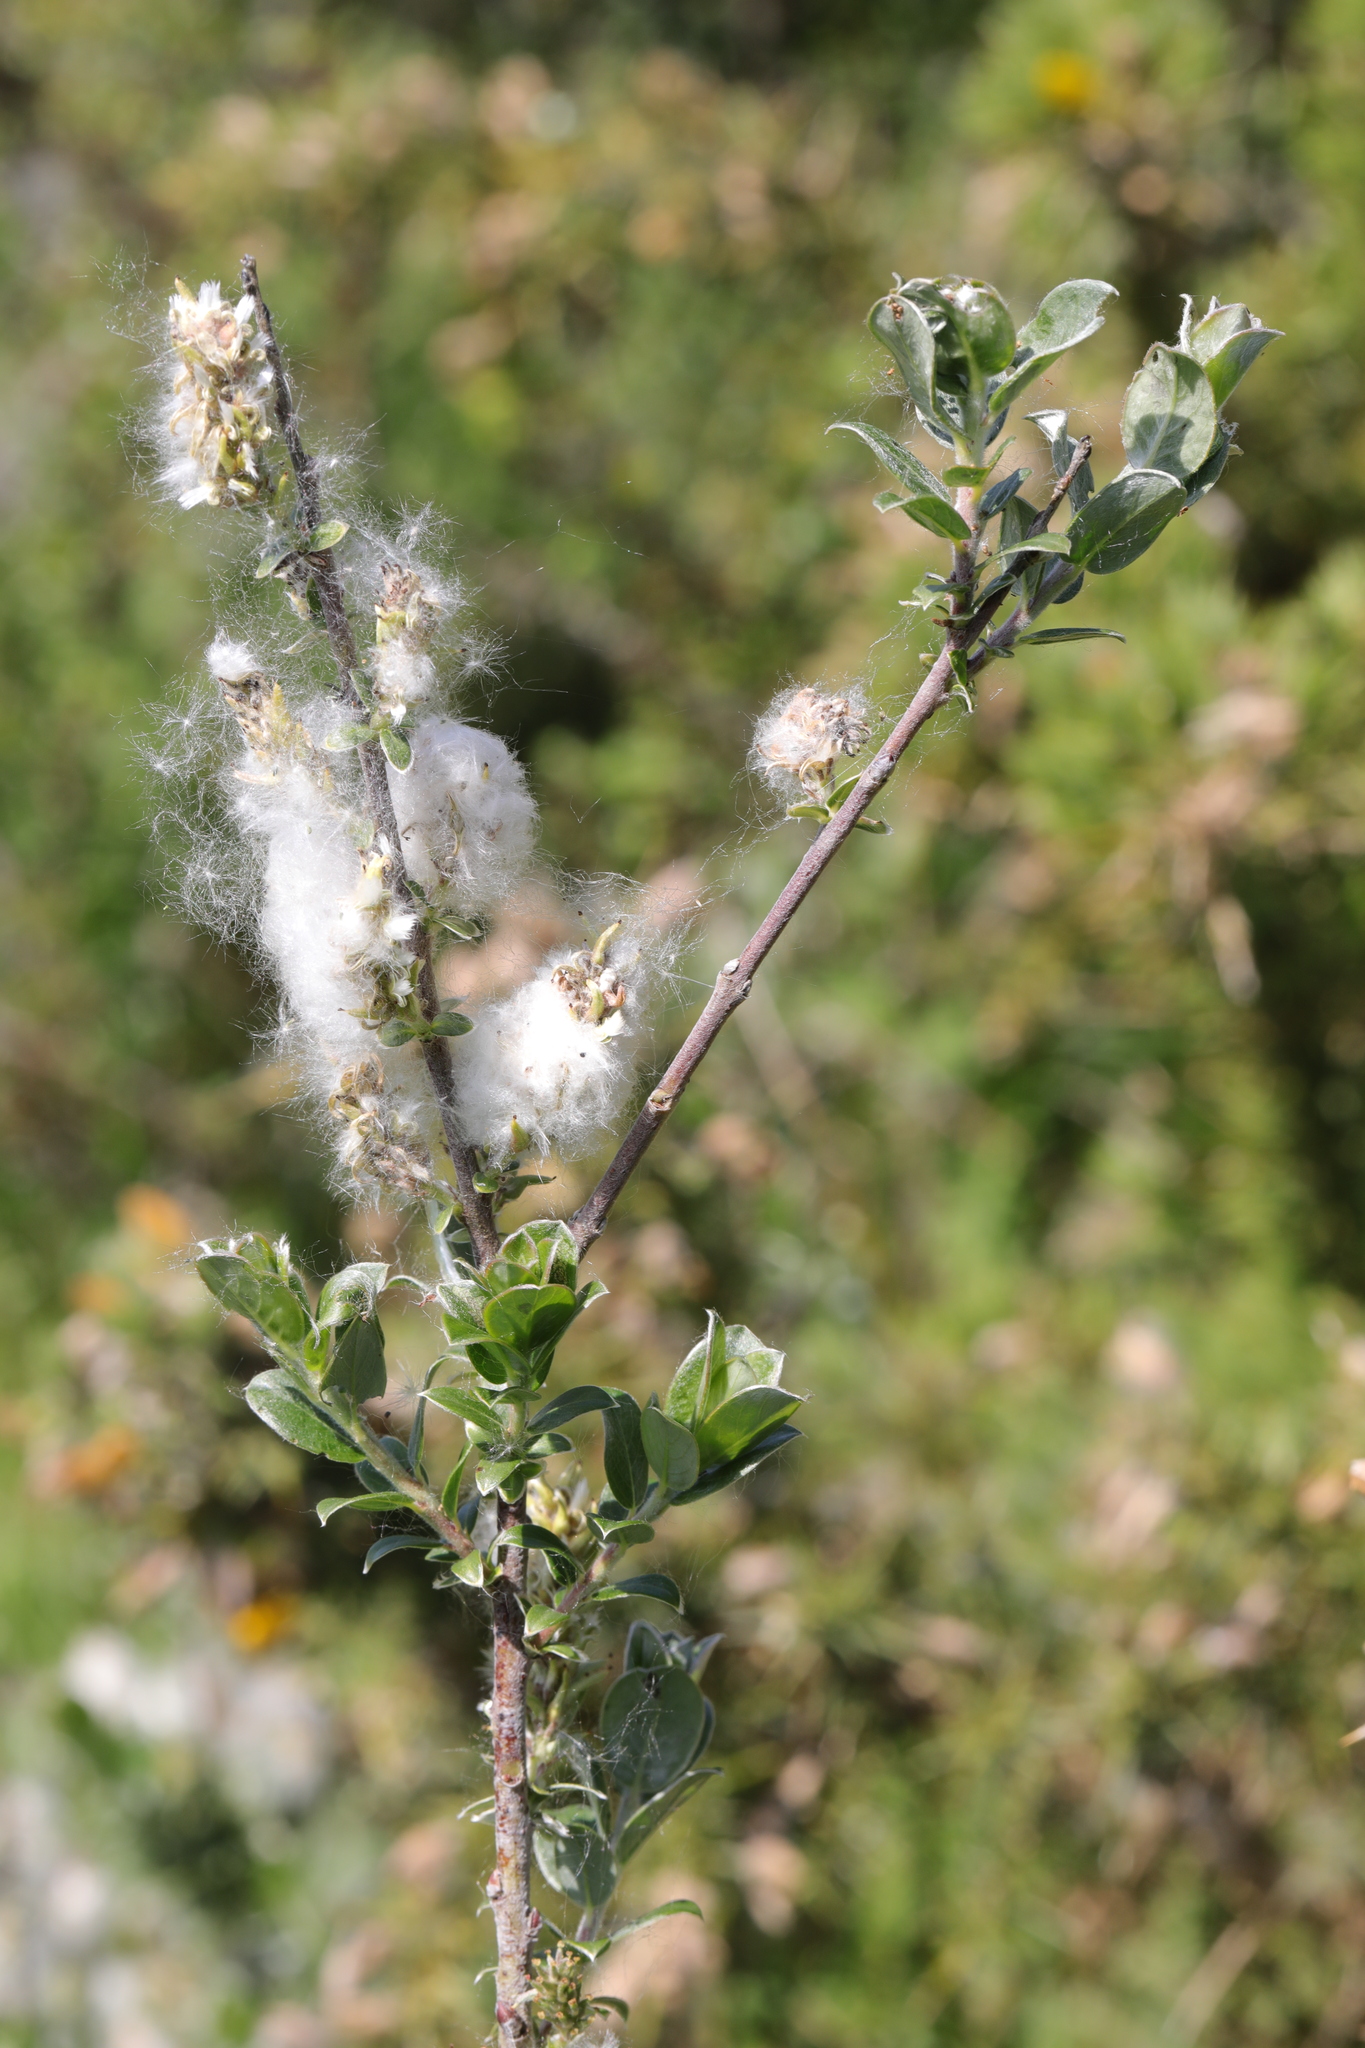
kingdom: Plantae
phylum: Tracheophyta
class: Magnoliopsida
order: Malpighiales
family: Salicaceae
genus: Salix
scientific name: Salix repens
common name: Creeping willow
